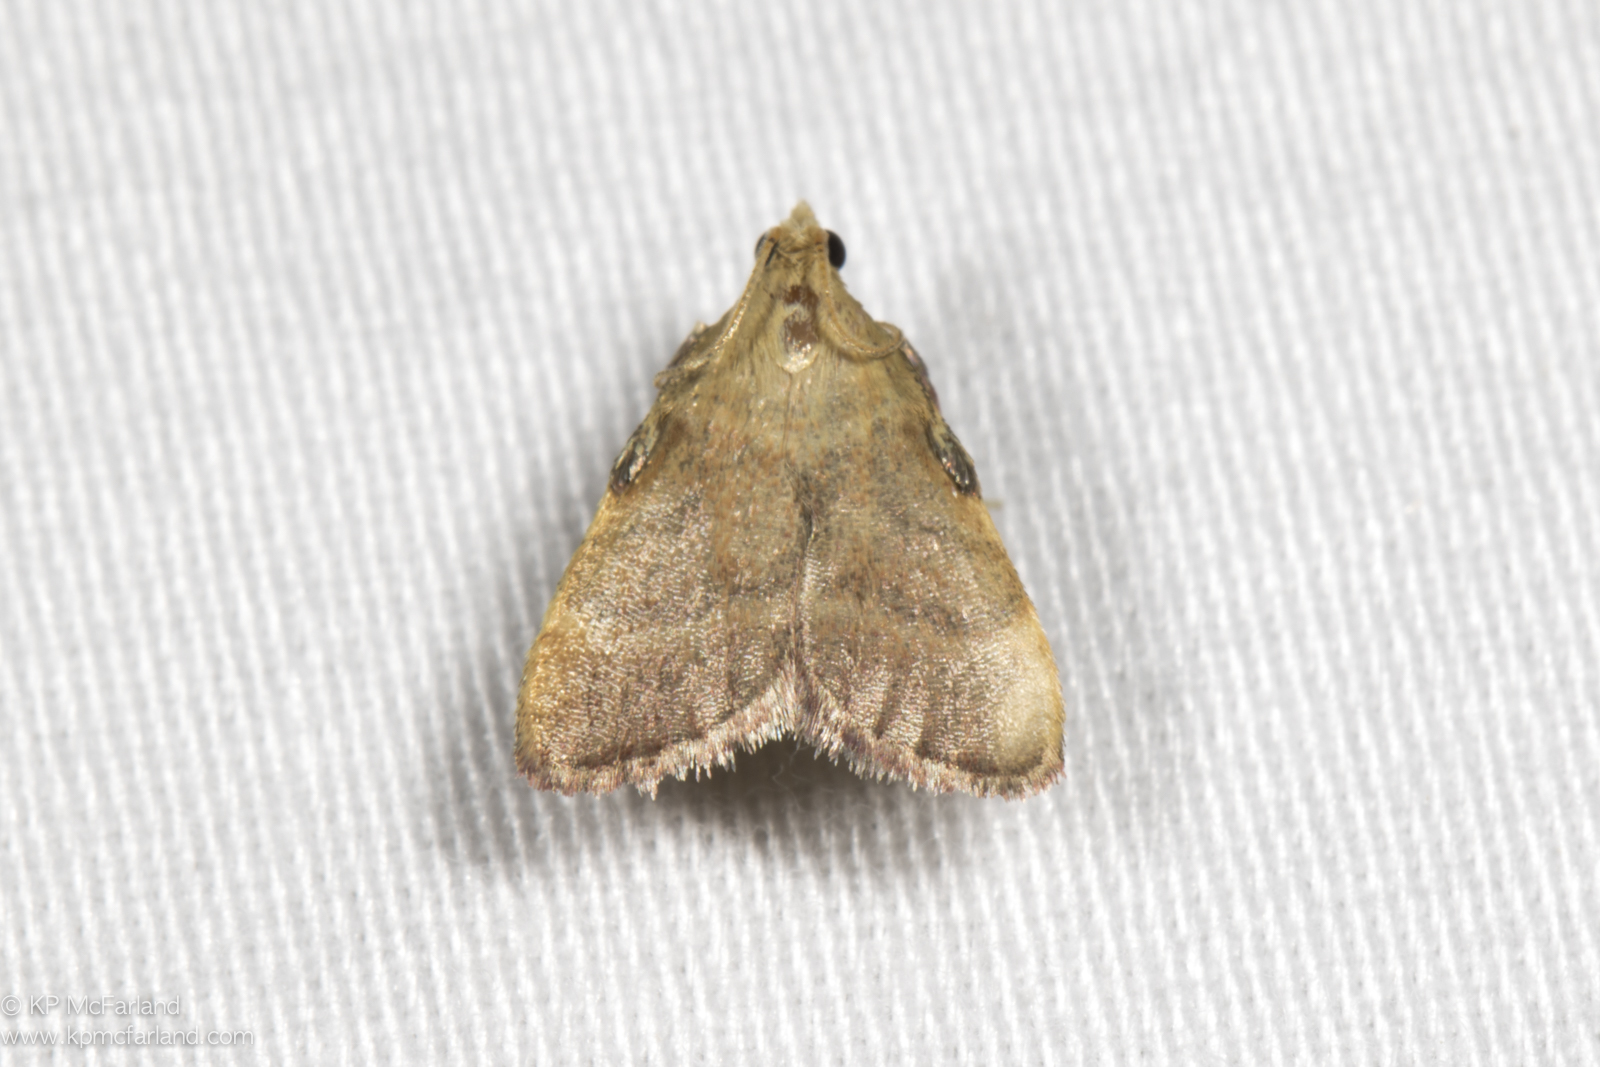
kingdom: Animalia
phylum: Arthropoda
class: Insecta
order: Lepidoptera
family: Pyralidae
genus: Condylolomia
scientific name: Condylolomia participialis
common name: Drab condylolomia moth
